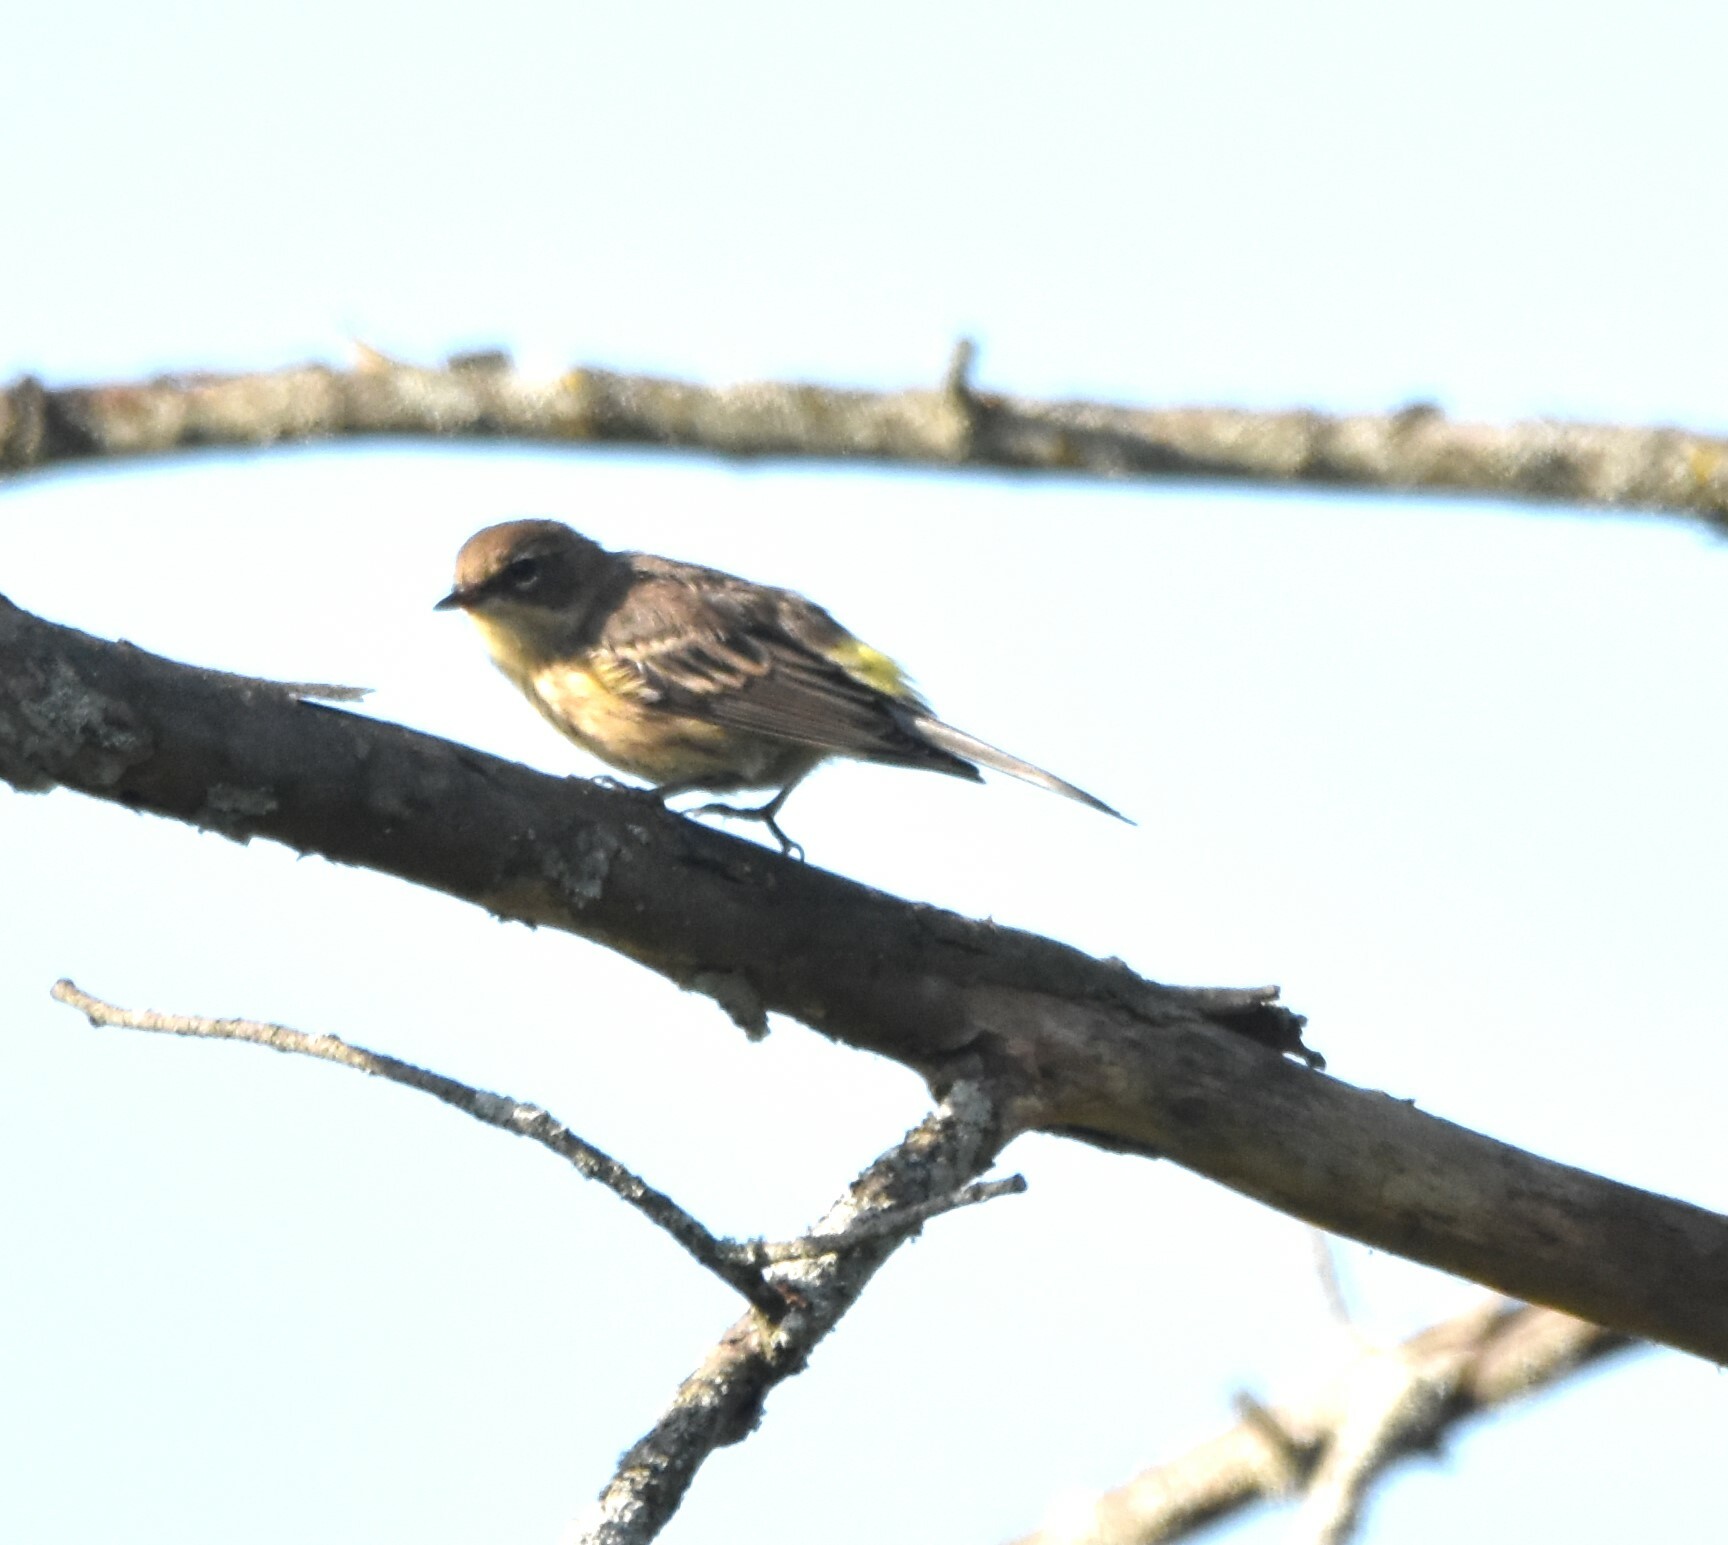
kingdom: Animalia
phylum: Chordata
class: Aves
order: Passeriformes
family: Parulidae
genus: Setophaga
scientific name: Setophaga coronata
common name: Myrtle warbler
